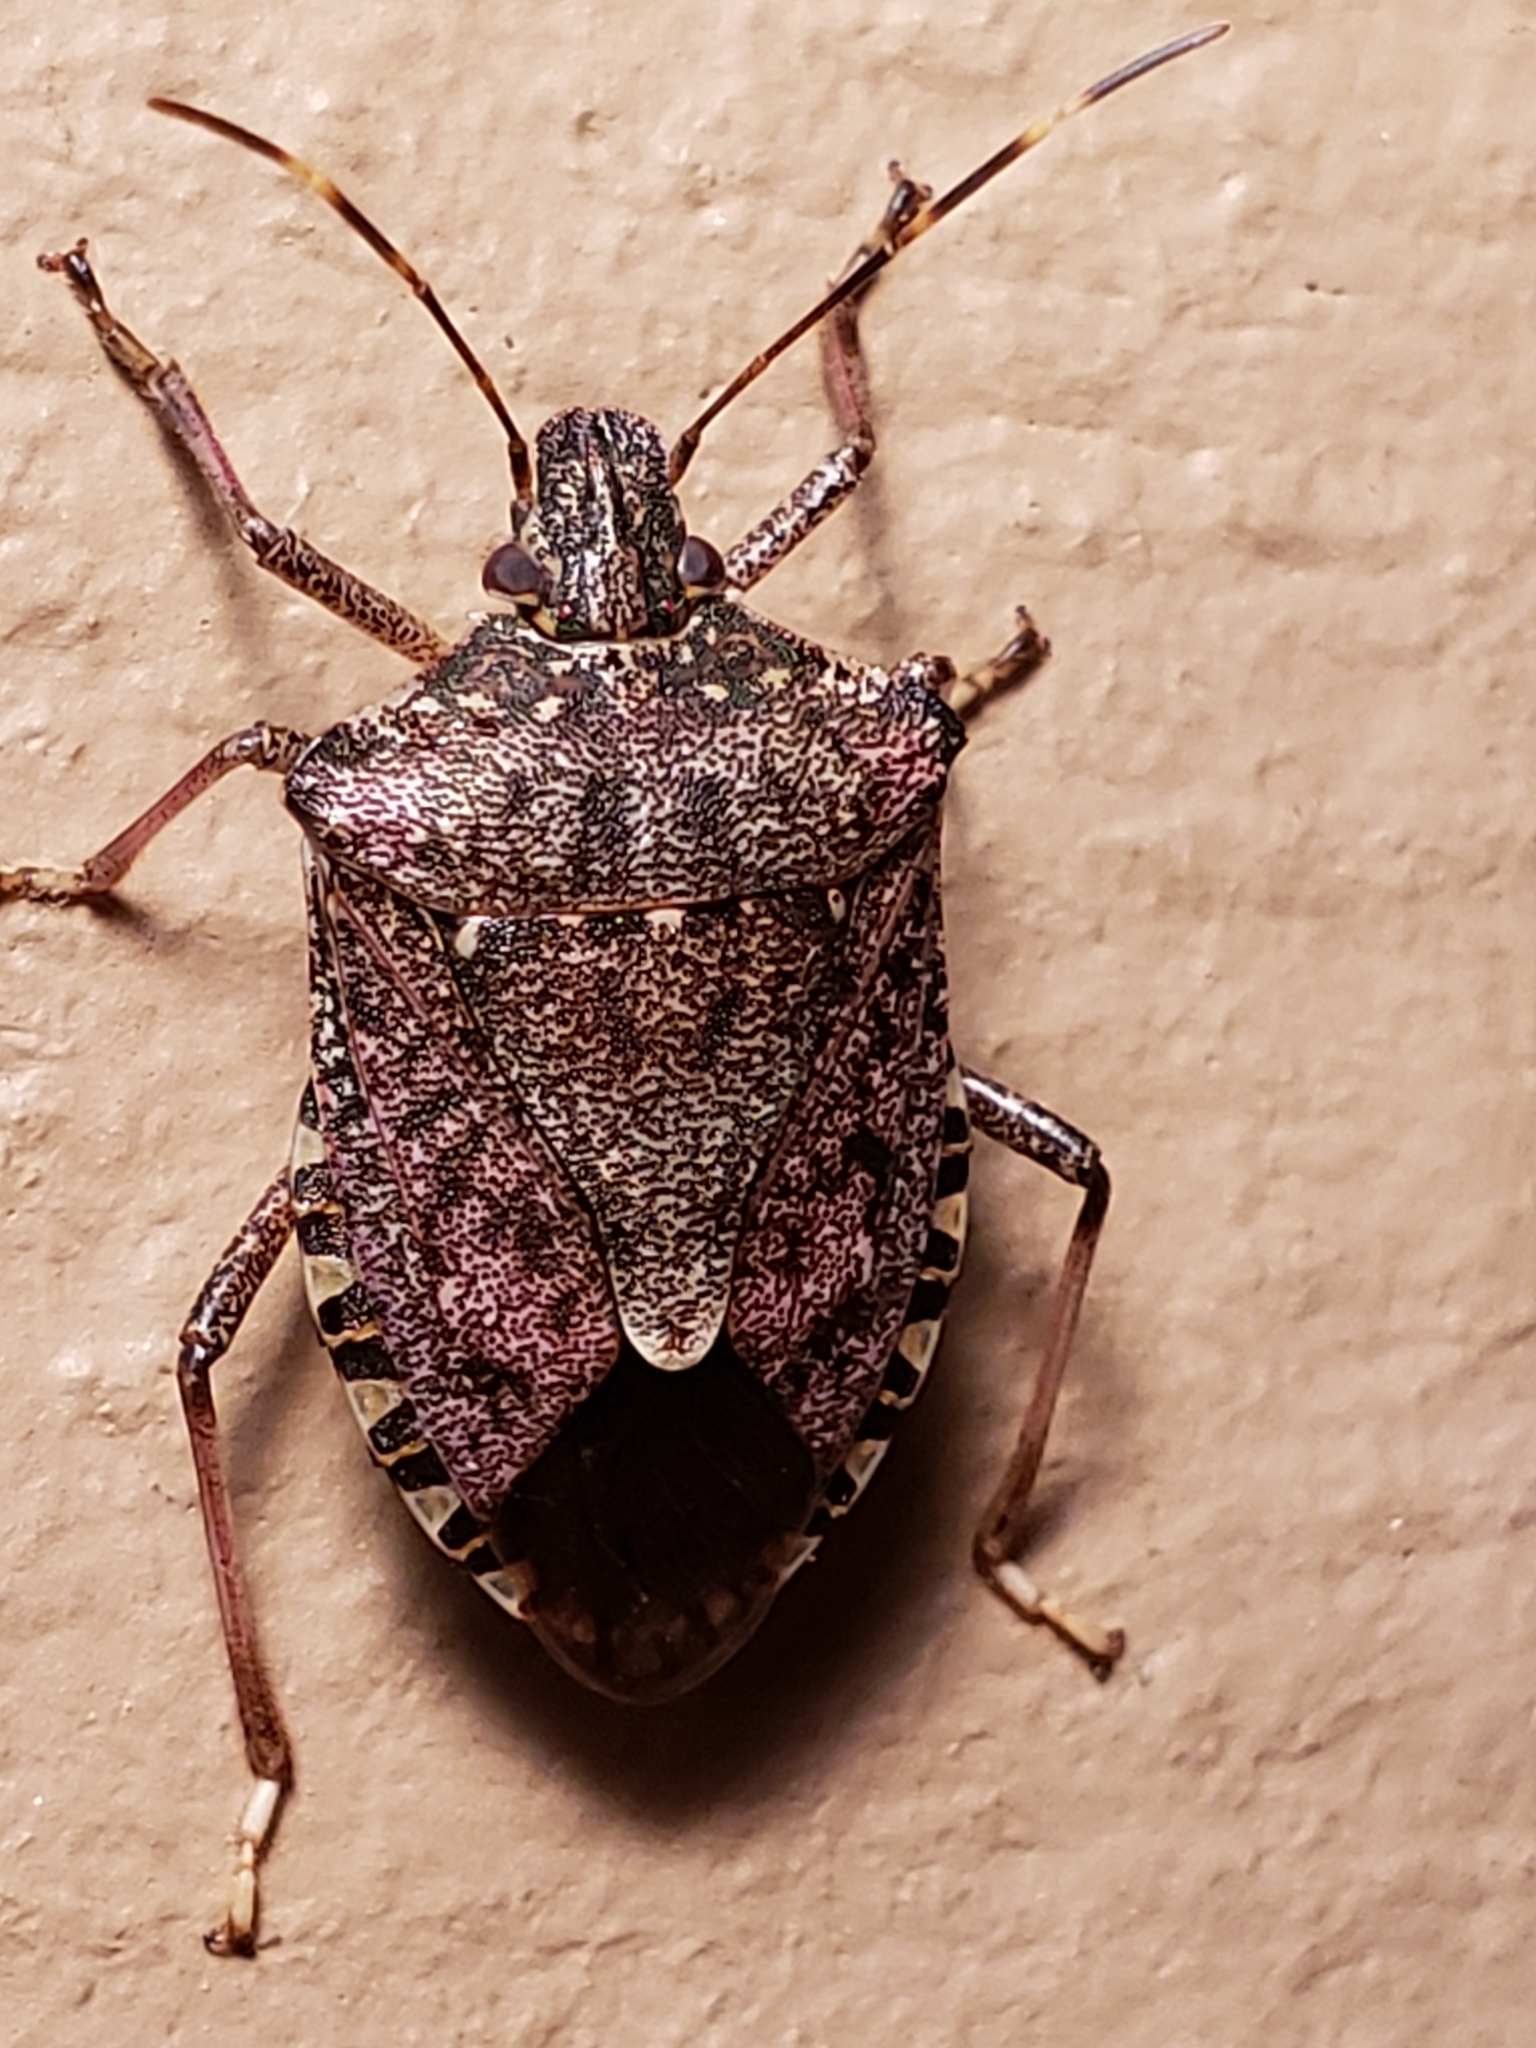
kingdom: Animalia
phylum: Arthropoda
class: Insecta
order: Hemiptera
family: Pentatomidae
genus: Halyomorpha
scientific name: Halyomorpha halys
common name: Brown marmorated stink bug
